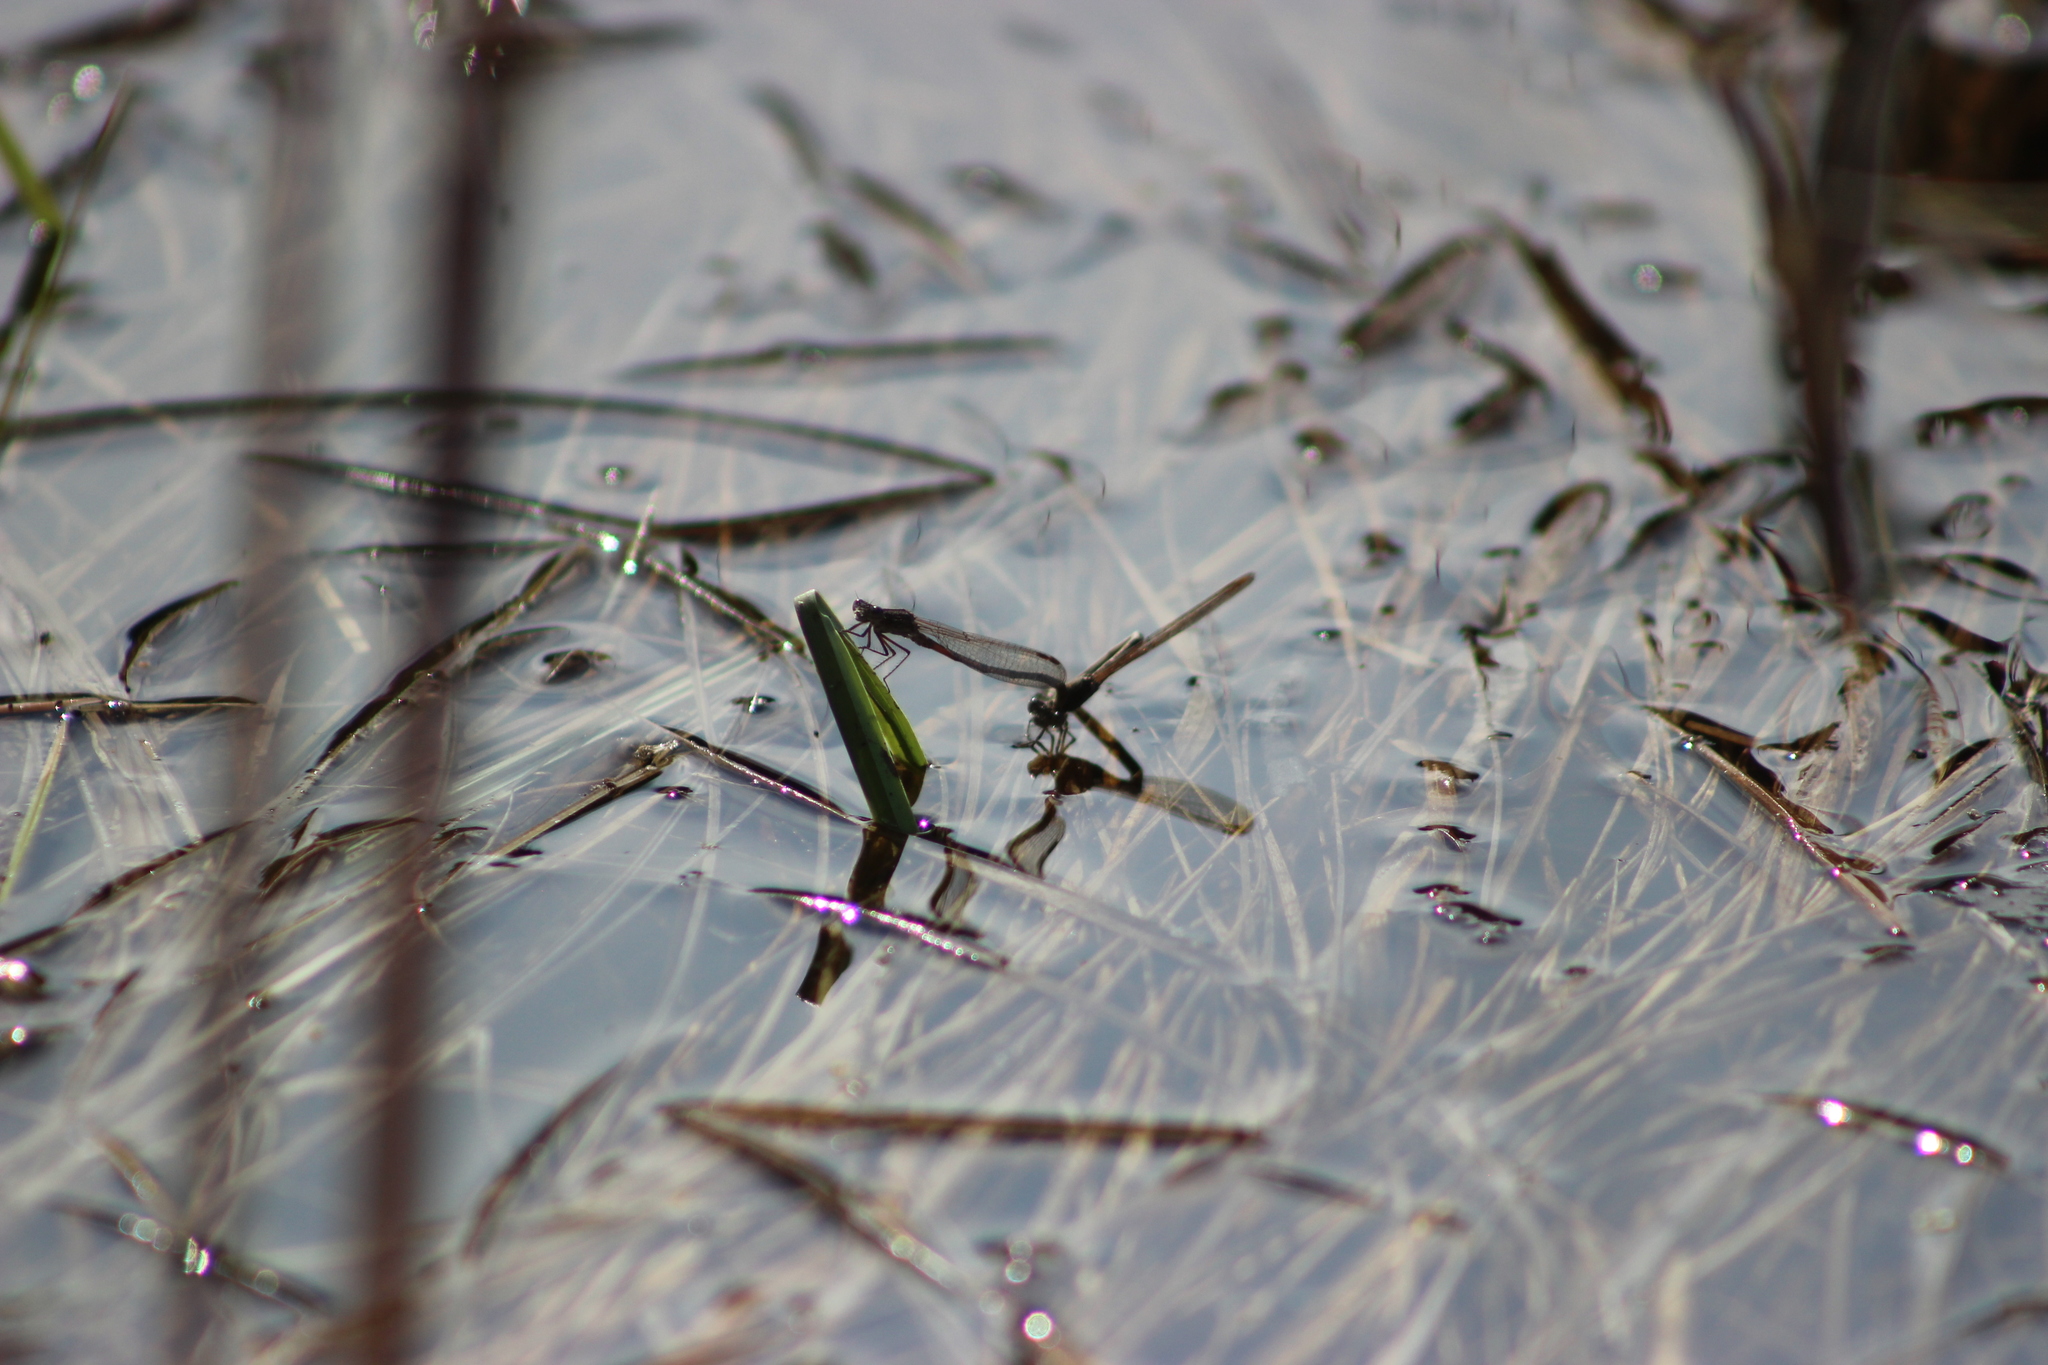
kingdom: Animalia
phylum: Arthropoda
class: Insecta
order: Odonata
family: Lestidae
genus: Sympecma
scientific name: Sympecma paedisca
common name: Siberian winter damsel
